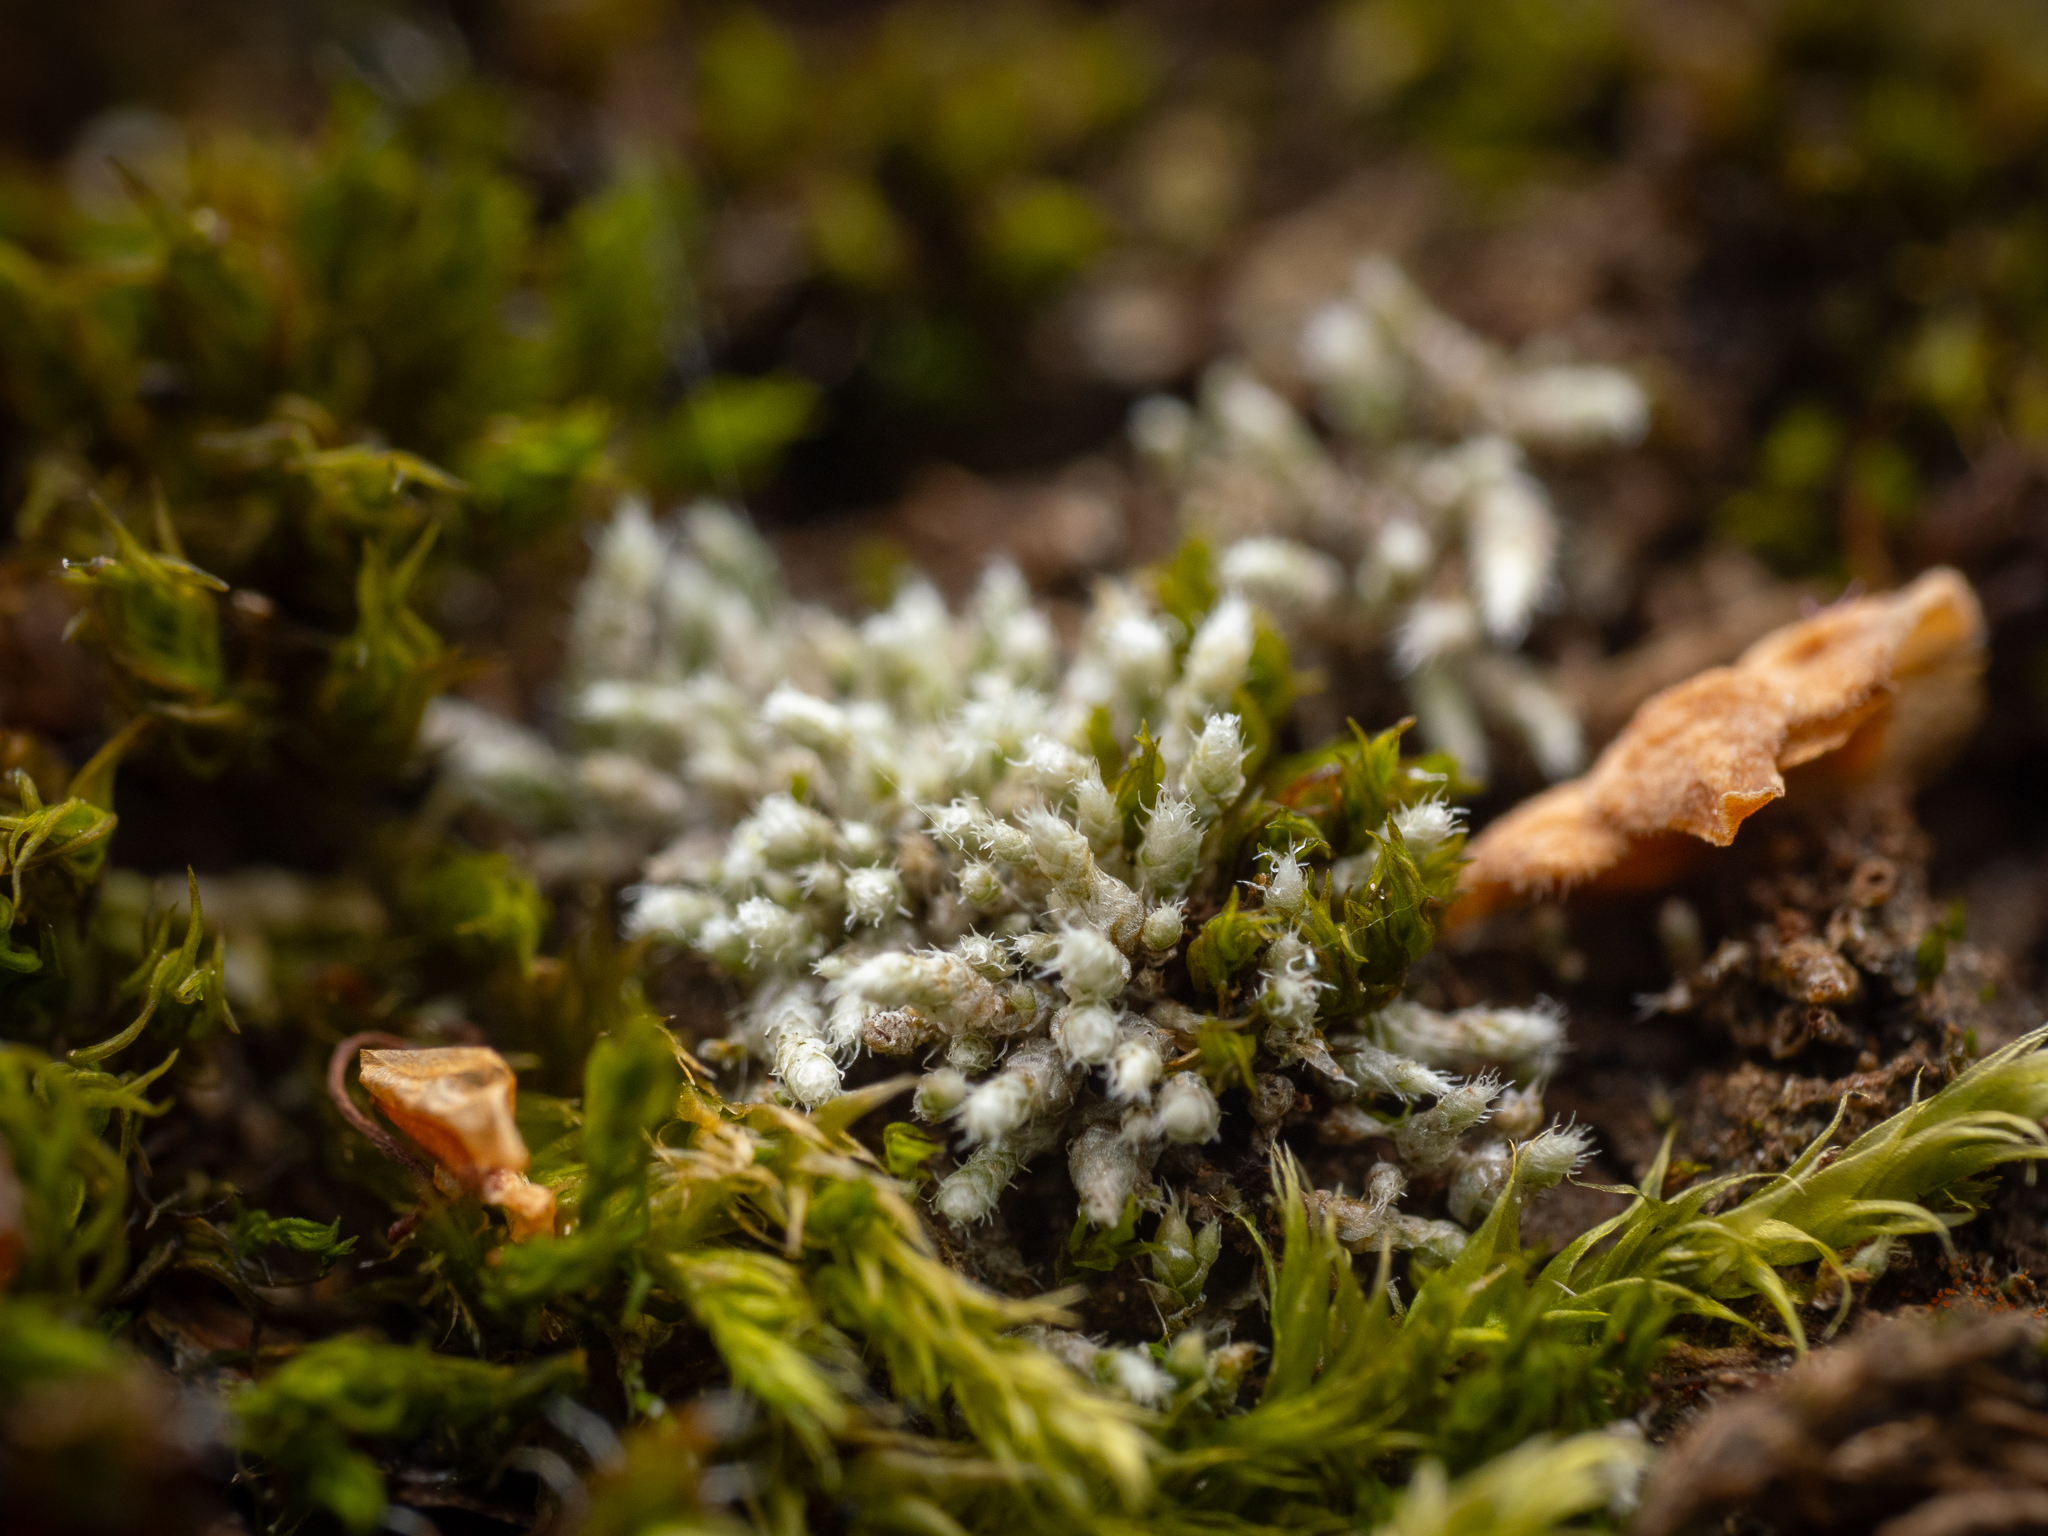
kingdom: Plantae
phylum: Bryophyta
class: Bryopsida
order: Bryales
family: Bryaceae
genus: Bryum
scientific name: Bryum argenteum
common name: Silver-moss
